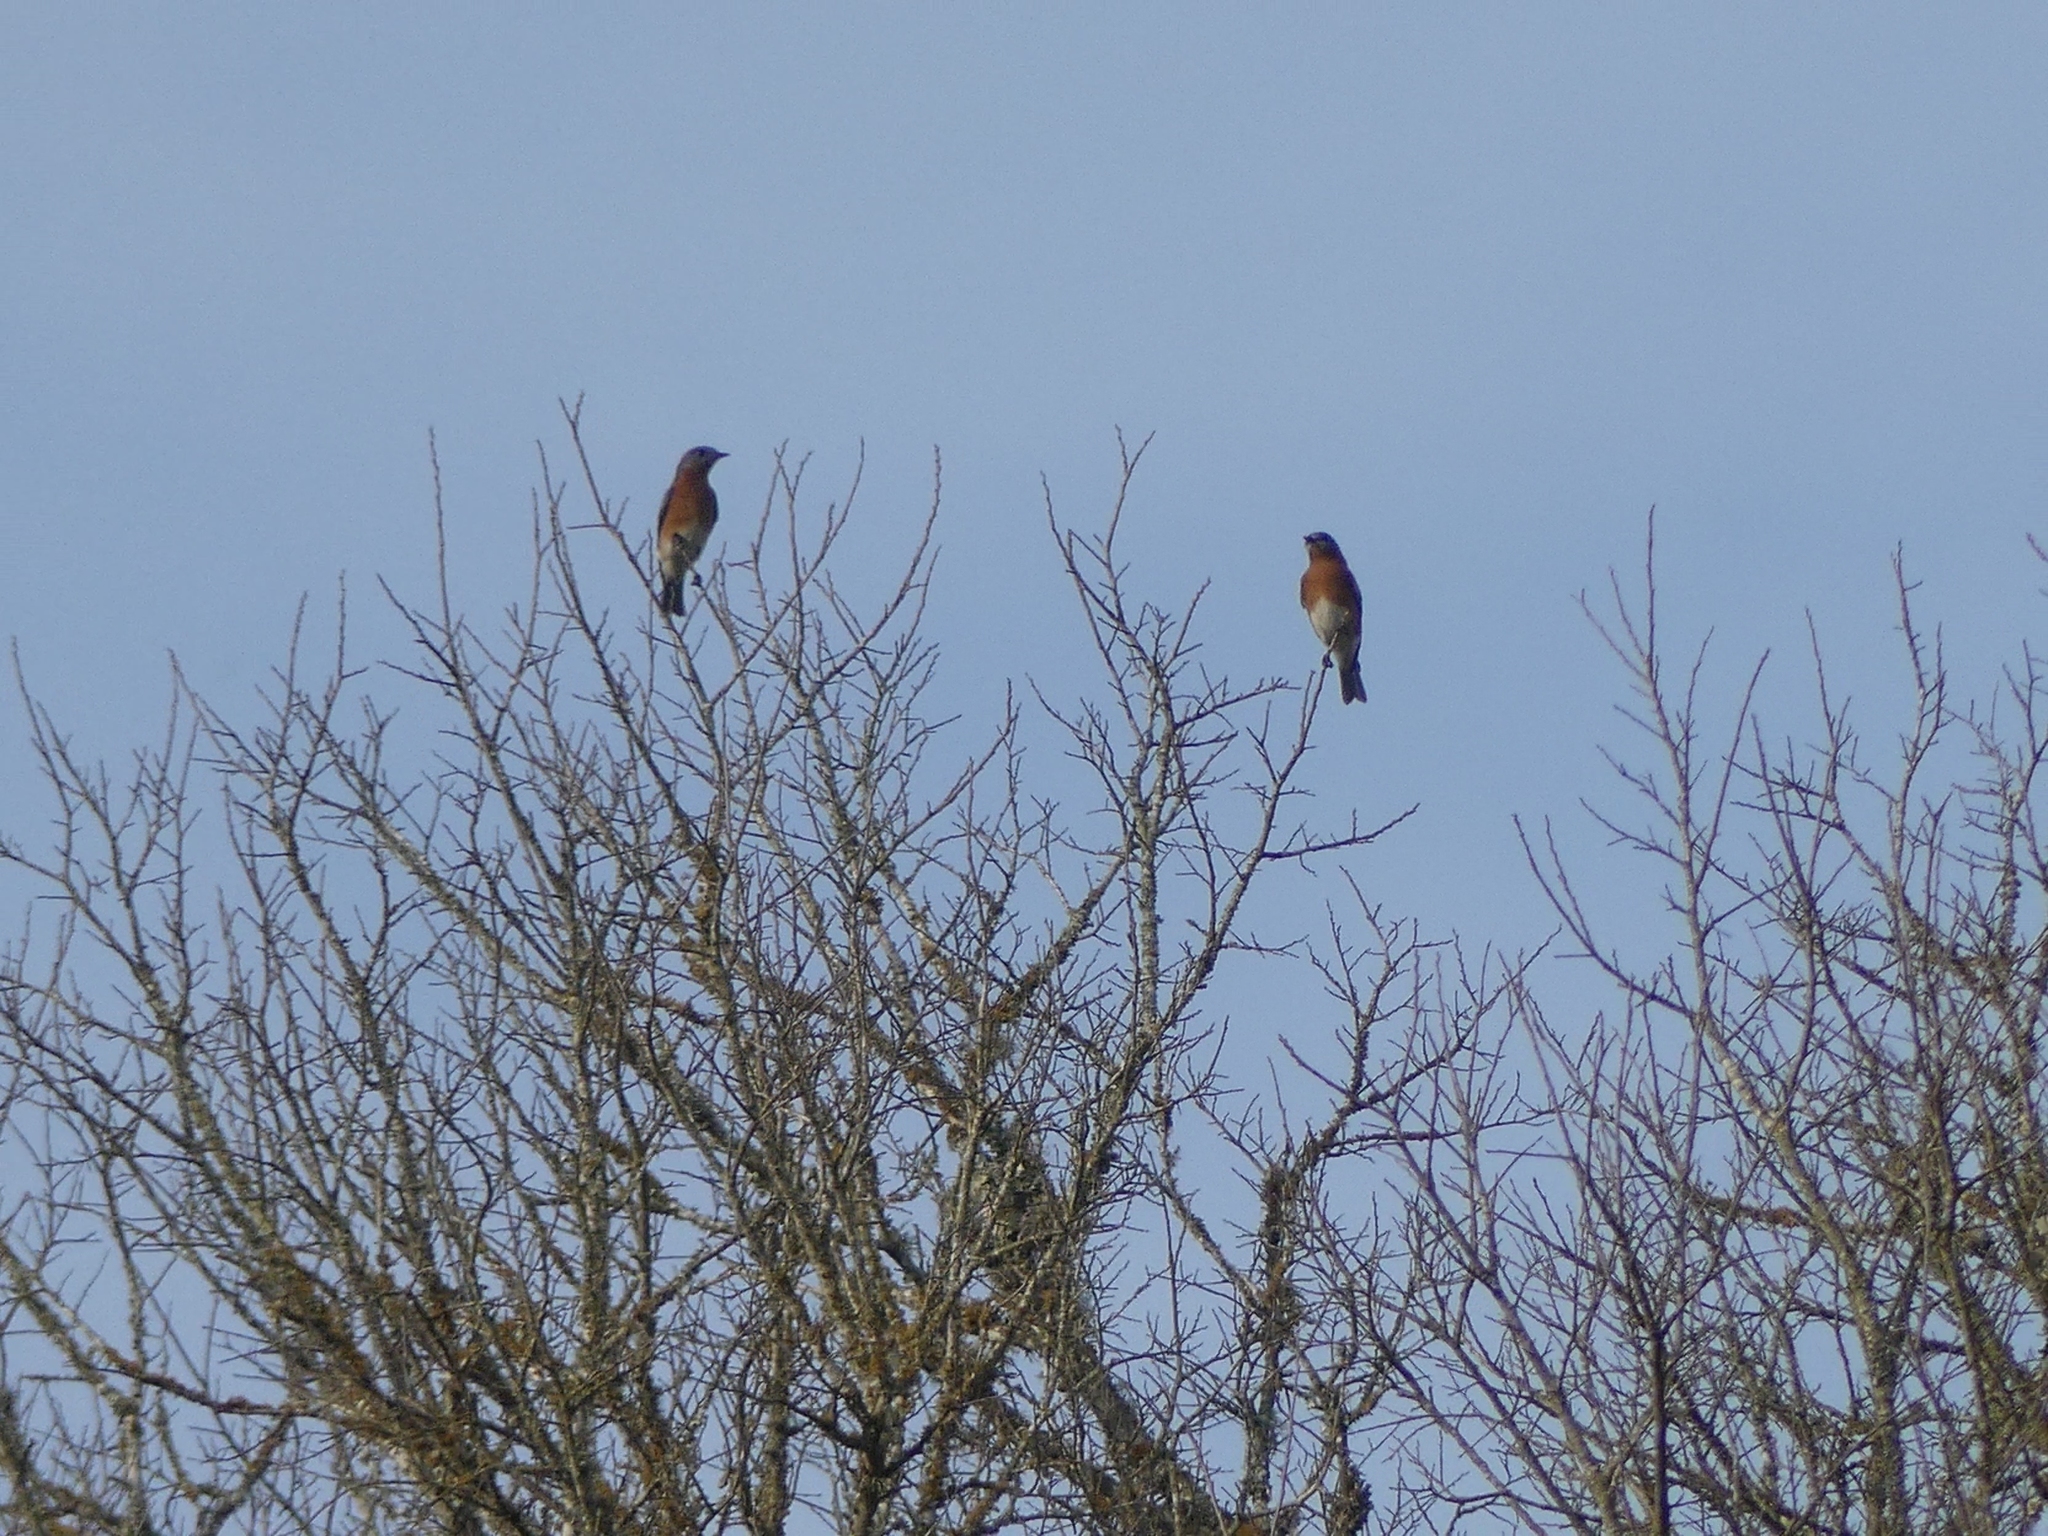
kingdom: Animalia
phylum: Chordata
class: Aves
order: Passeriformes
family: Turdidae
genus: Sialia
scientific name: Sialia sialis
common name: Eastern bluebird
